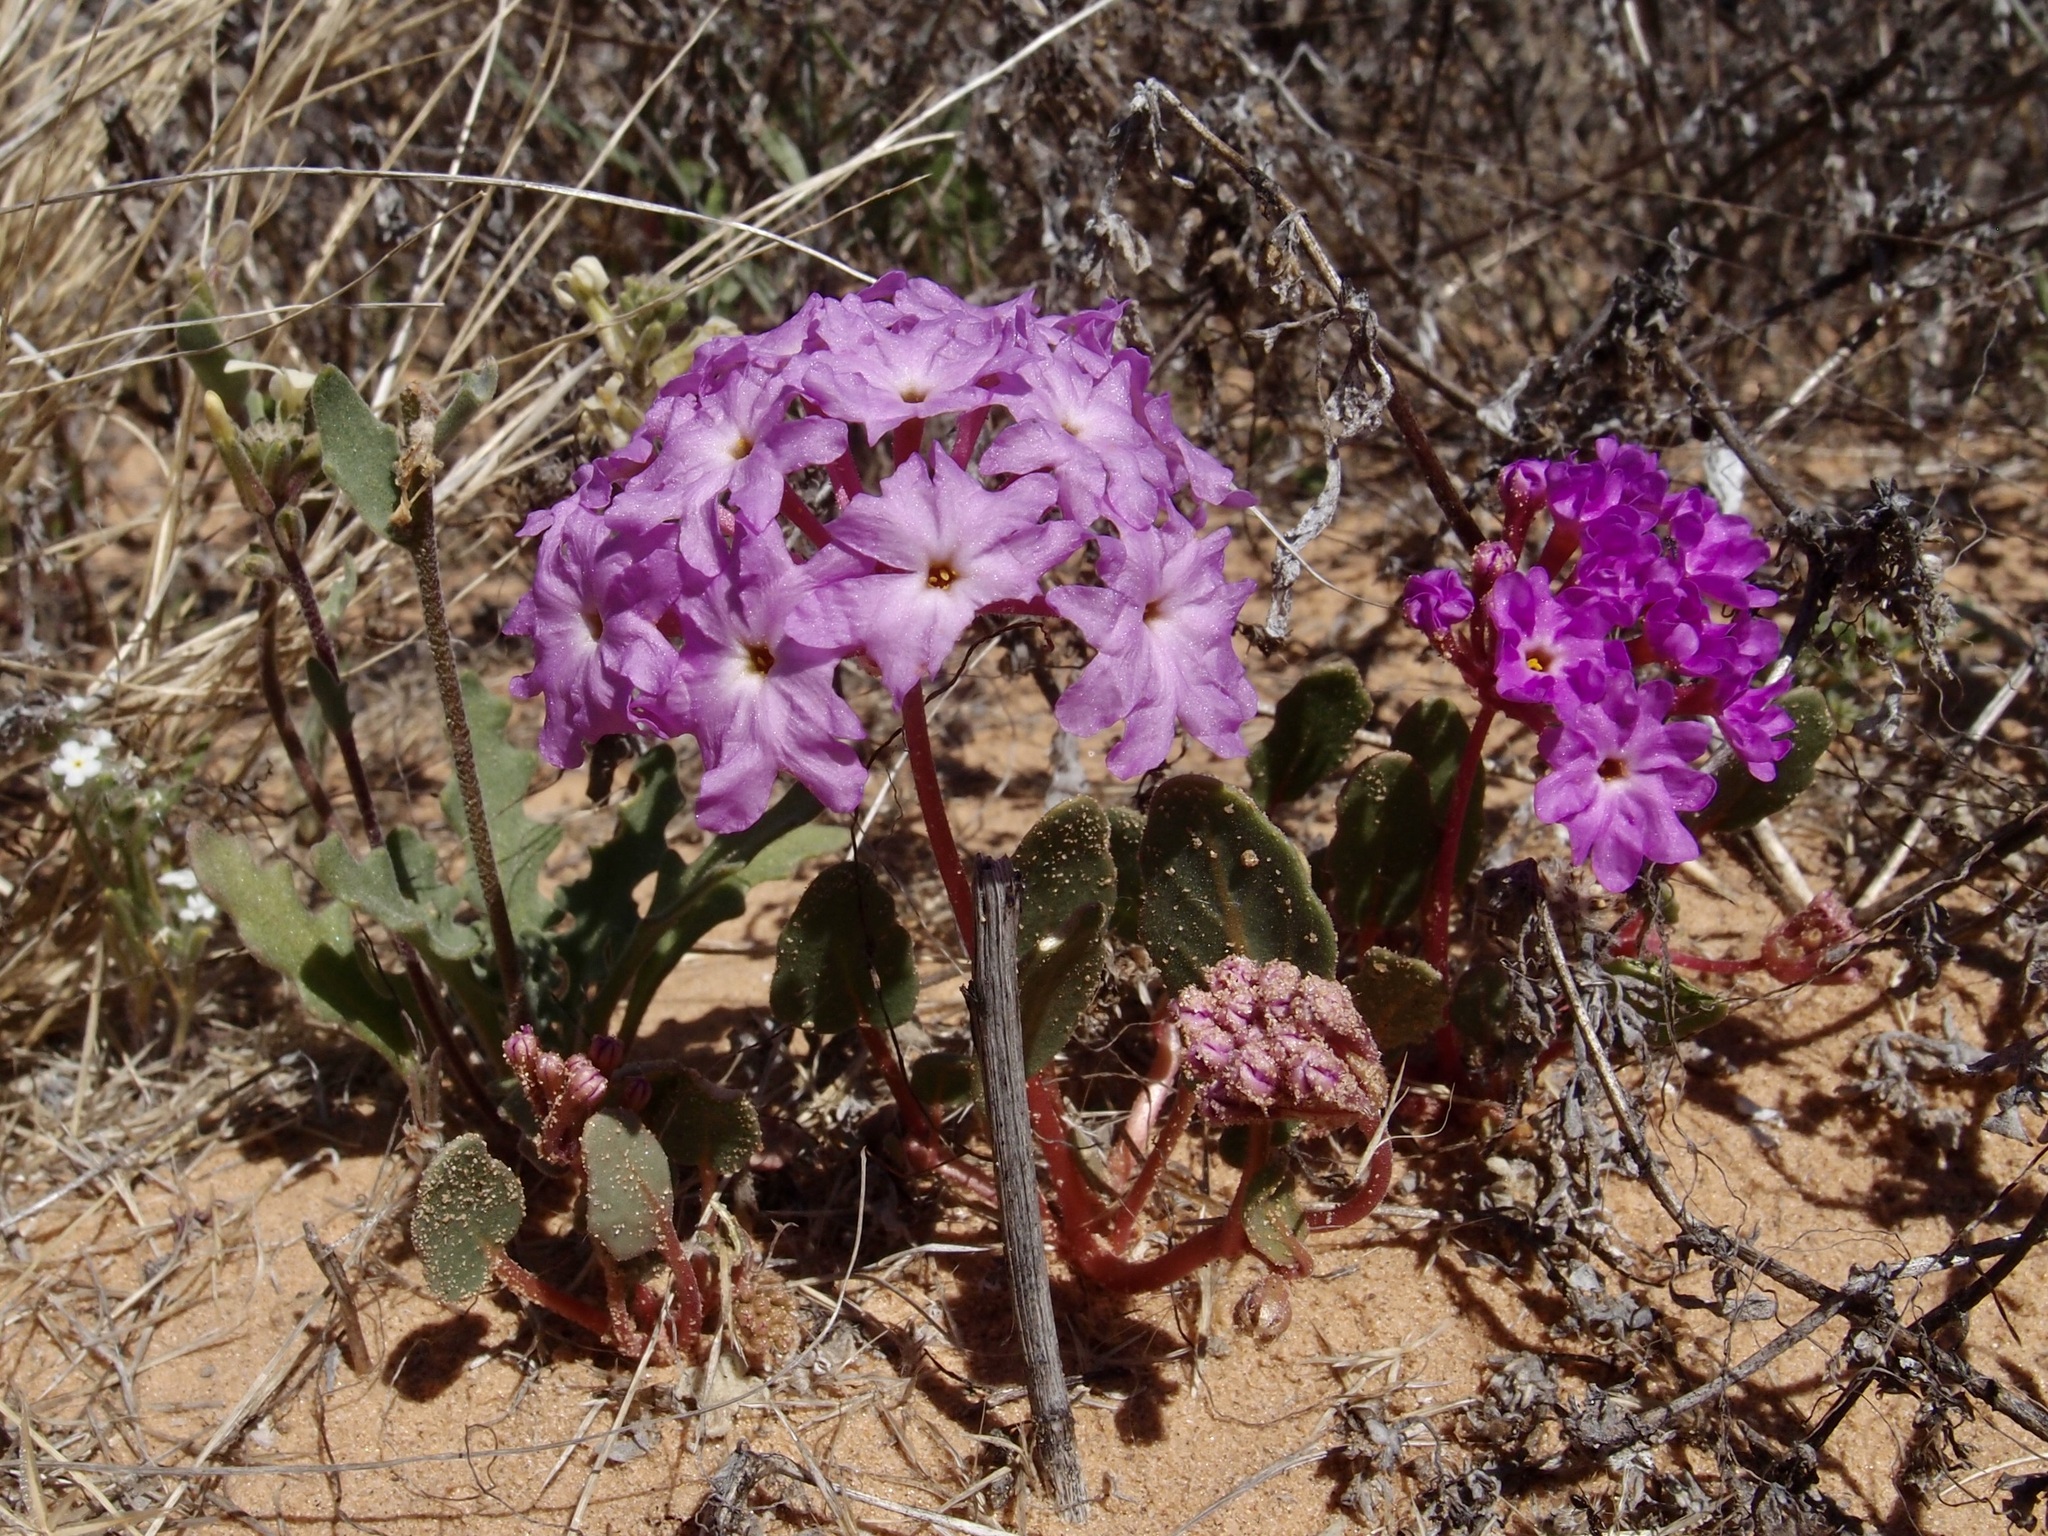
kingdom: Plantae
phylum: Tracheophyta
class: Magnoliopsida
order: Caryophyllales
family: Nyctaginaceae
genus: Abronia
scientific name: Abronia villosa
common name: Desert sand-verbena
